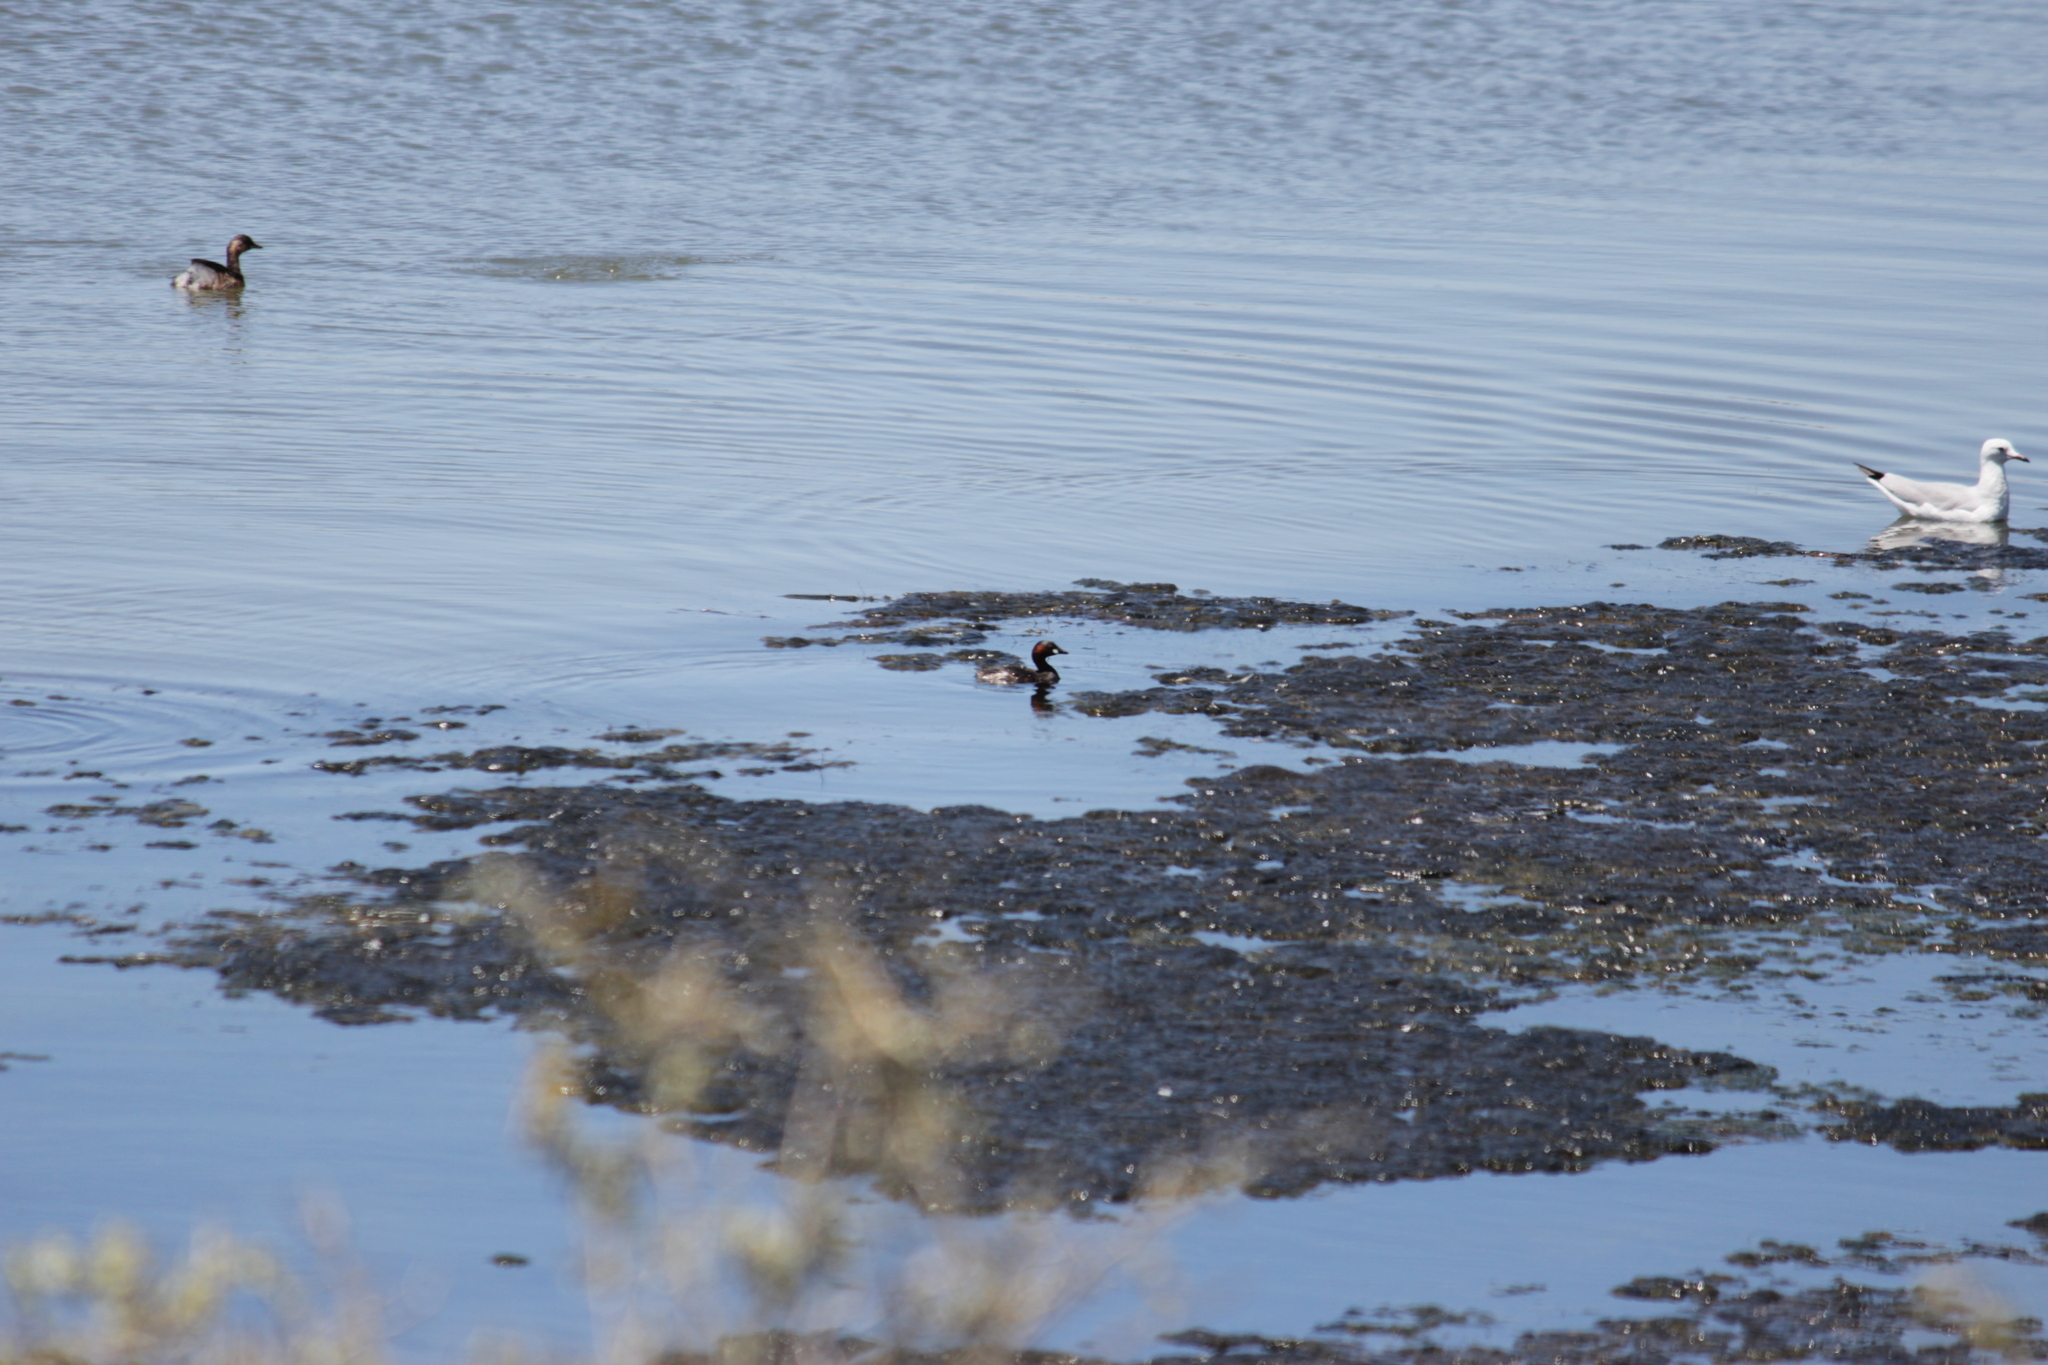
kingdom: Animalia
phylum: Chordata
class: Aves
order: Podicipediformes
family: Podicipedidae
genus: Tachybaptus
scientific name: Tachybaptus ruficollis
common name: Little grebe
